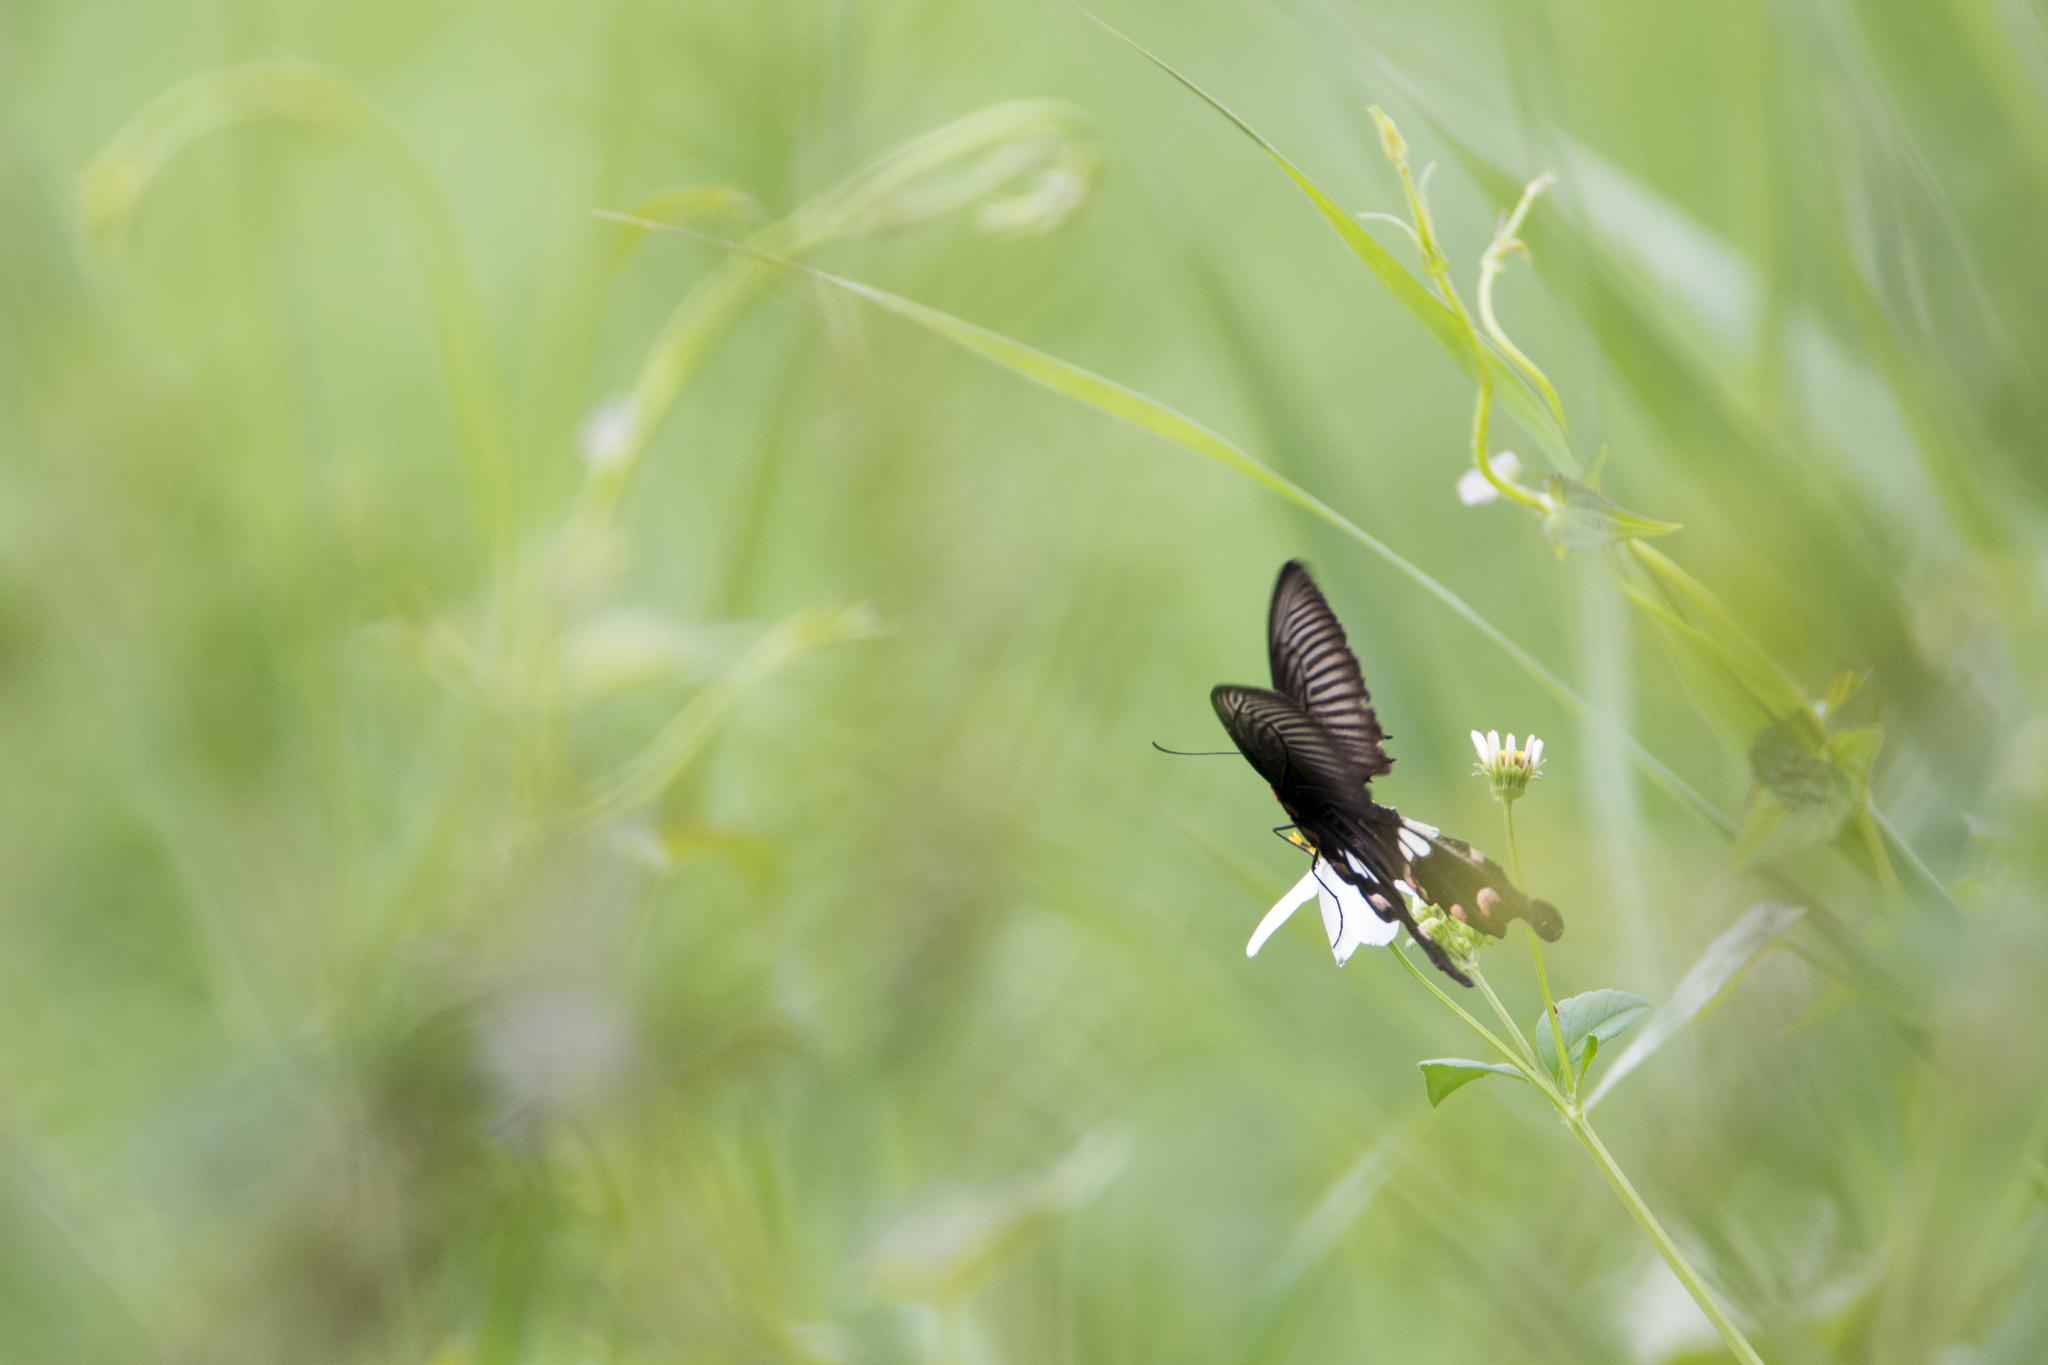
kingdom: Animalia
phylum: Arthropoda
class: Insecta
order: Lepidoptera
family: Papilionidae
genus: Pachliopta
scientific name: Pachliopta aristolochiae
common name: Common rose
